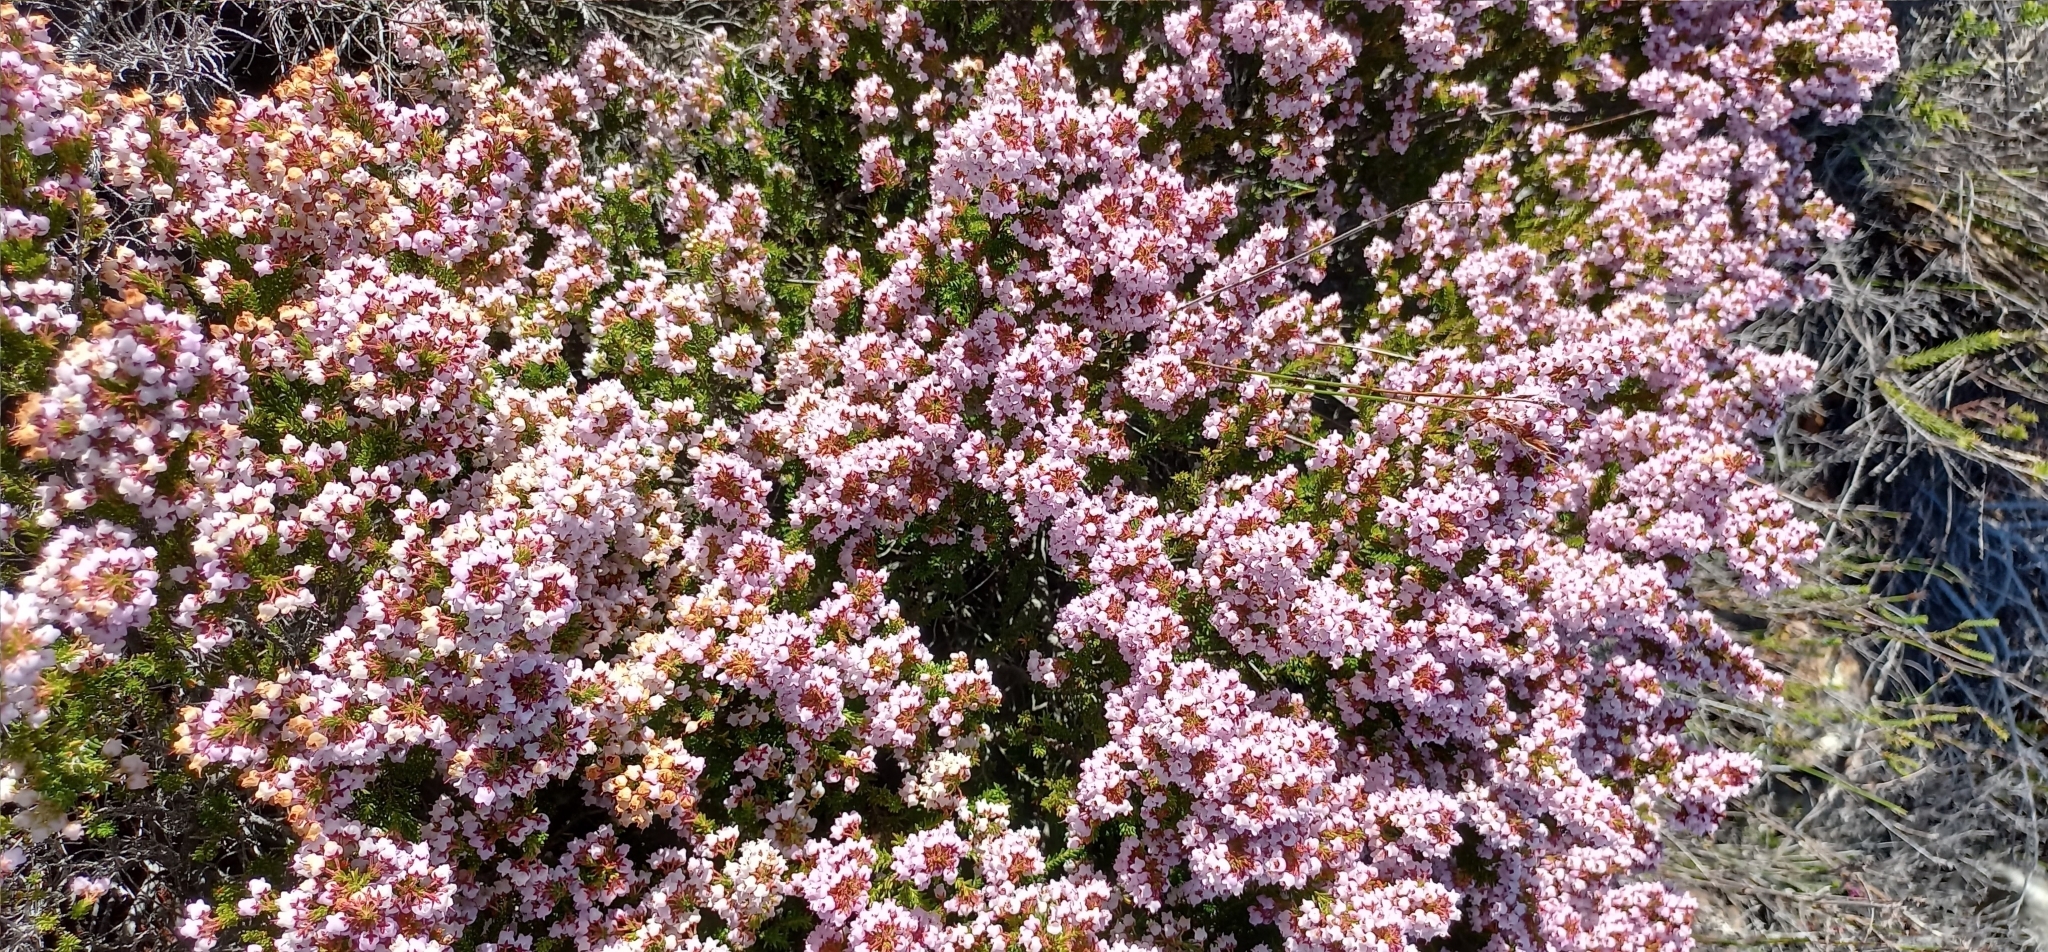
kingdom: Plantae
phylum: Tracheophyta
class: Magnoliopsida
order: Ericales
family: Ericaceae
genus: Erica
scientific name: Erica curvirostris
